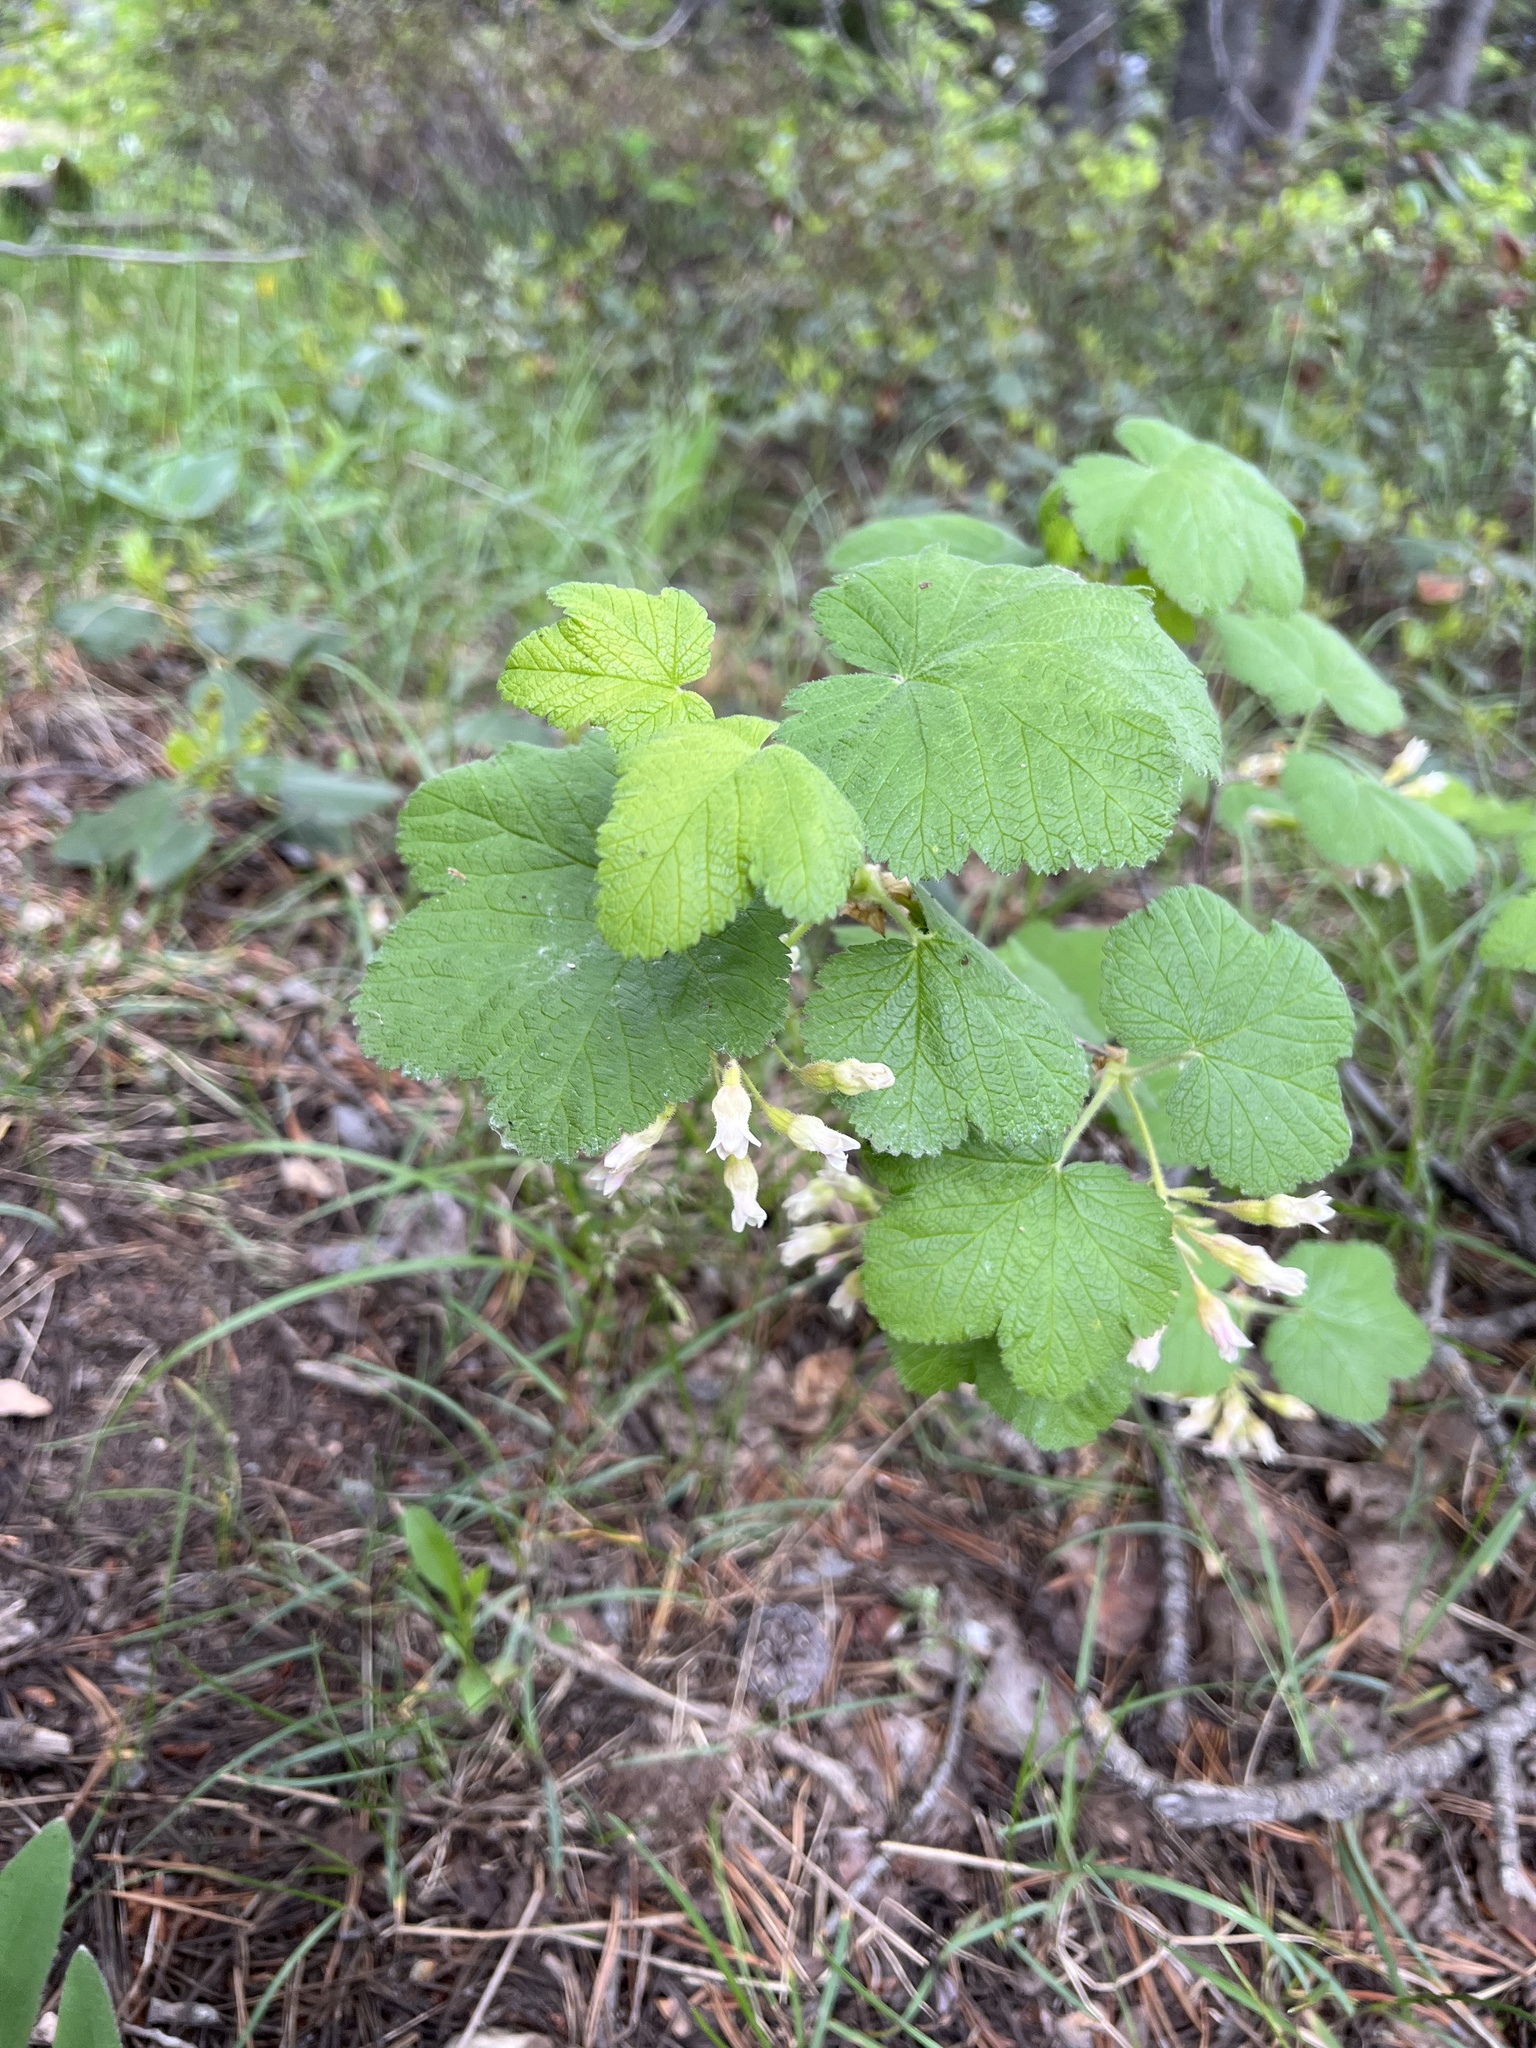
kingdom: Plantae
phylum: Tracheophyta
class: Magnoliopsida
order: Saxifragales
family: Grossulariaceae
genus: Ribes
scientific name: Ribes viscosissimum
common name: Sticky currant
